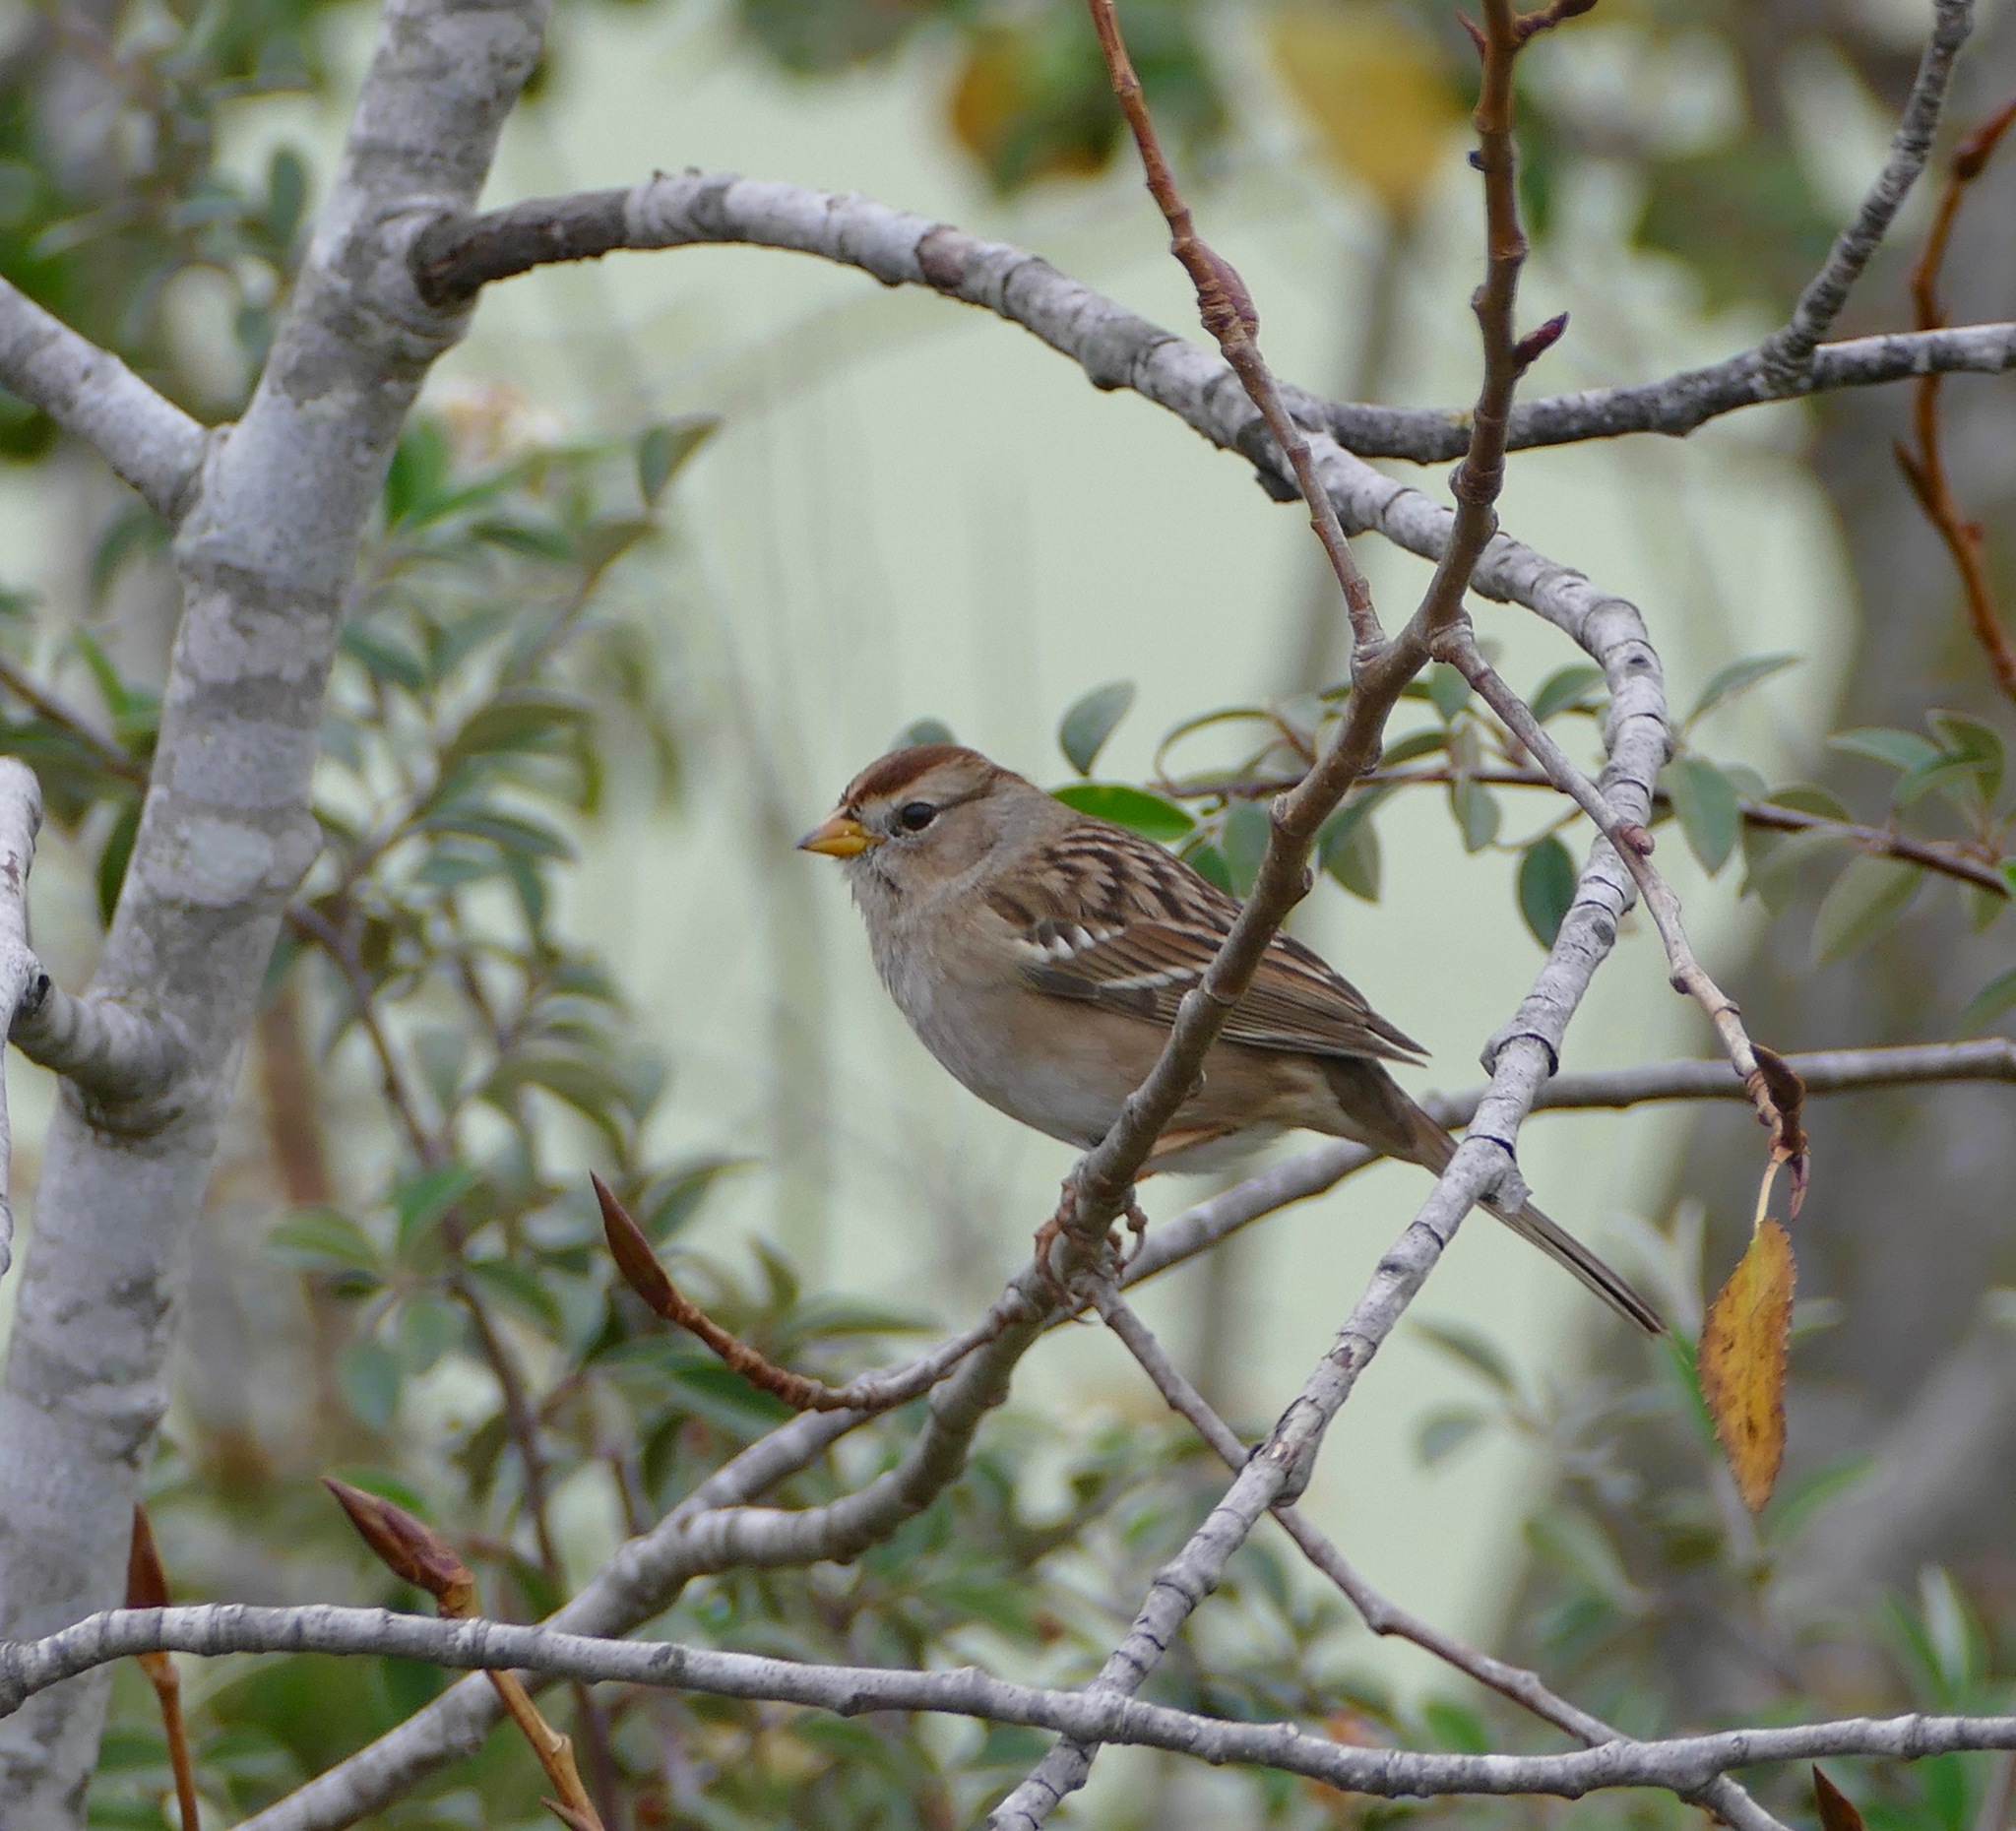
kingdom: Animalia
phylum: Chordata
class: Aves
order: Passeriformes
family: Passerellidae
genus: Zonotrichia
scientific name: Zonotrichia leucophrys
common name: White-crowned sparrow
